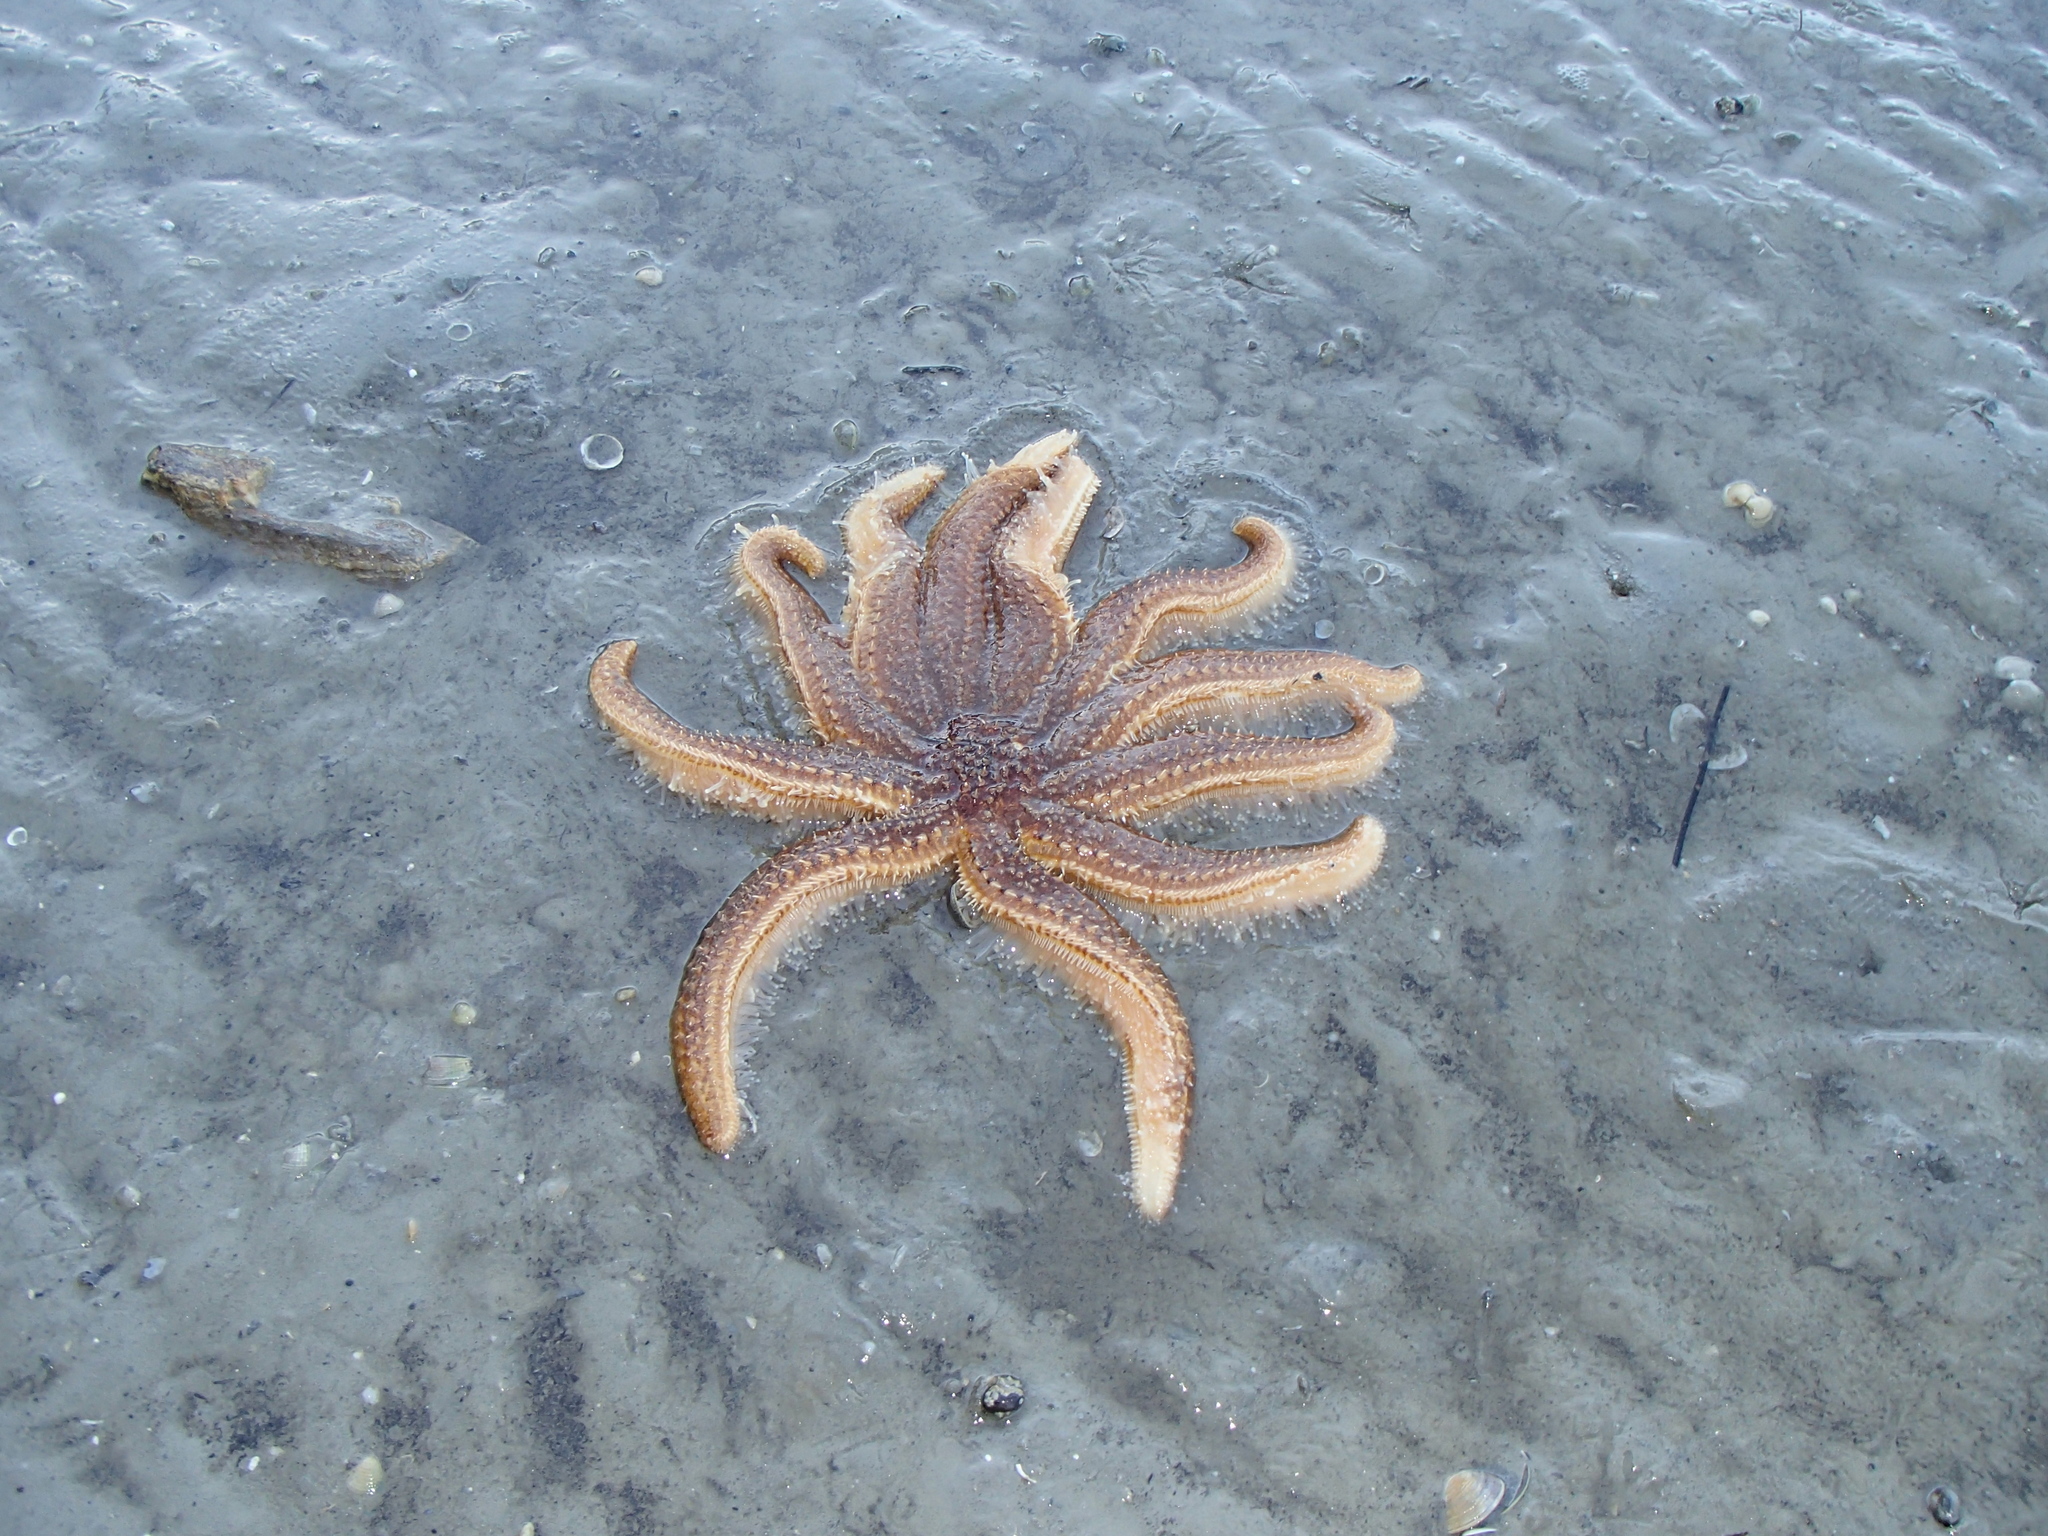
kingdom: Animalia
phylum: Echinodermata
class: Asteroidea
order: Forcipulatida
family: Asteriidae
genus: Coscinasterias
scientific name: Coscinasterias muricata
